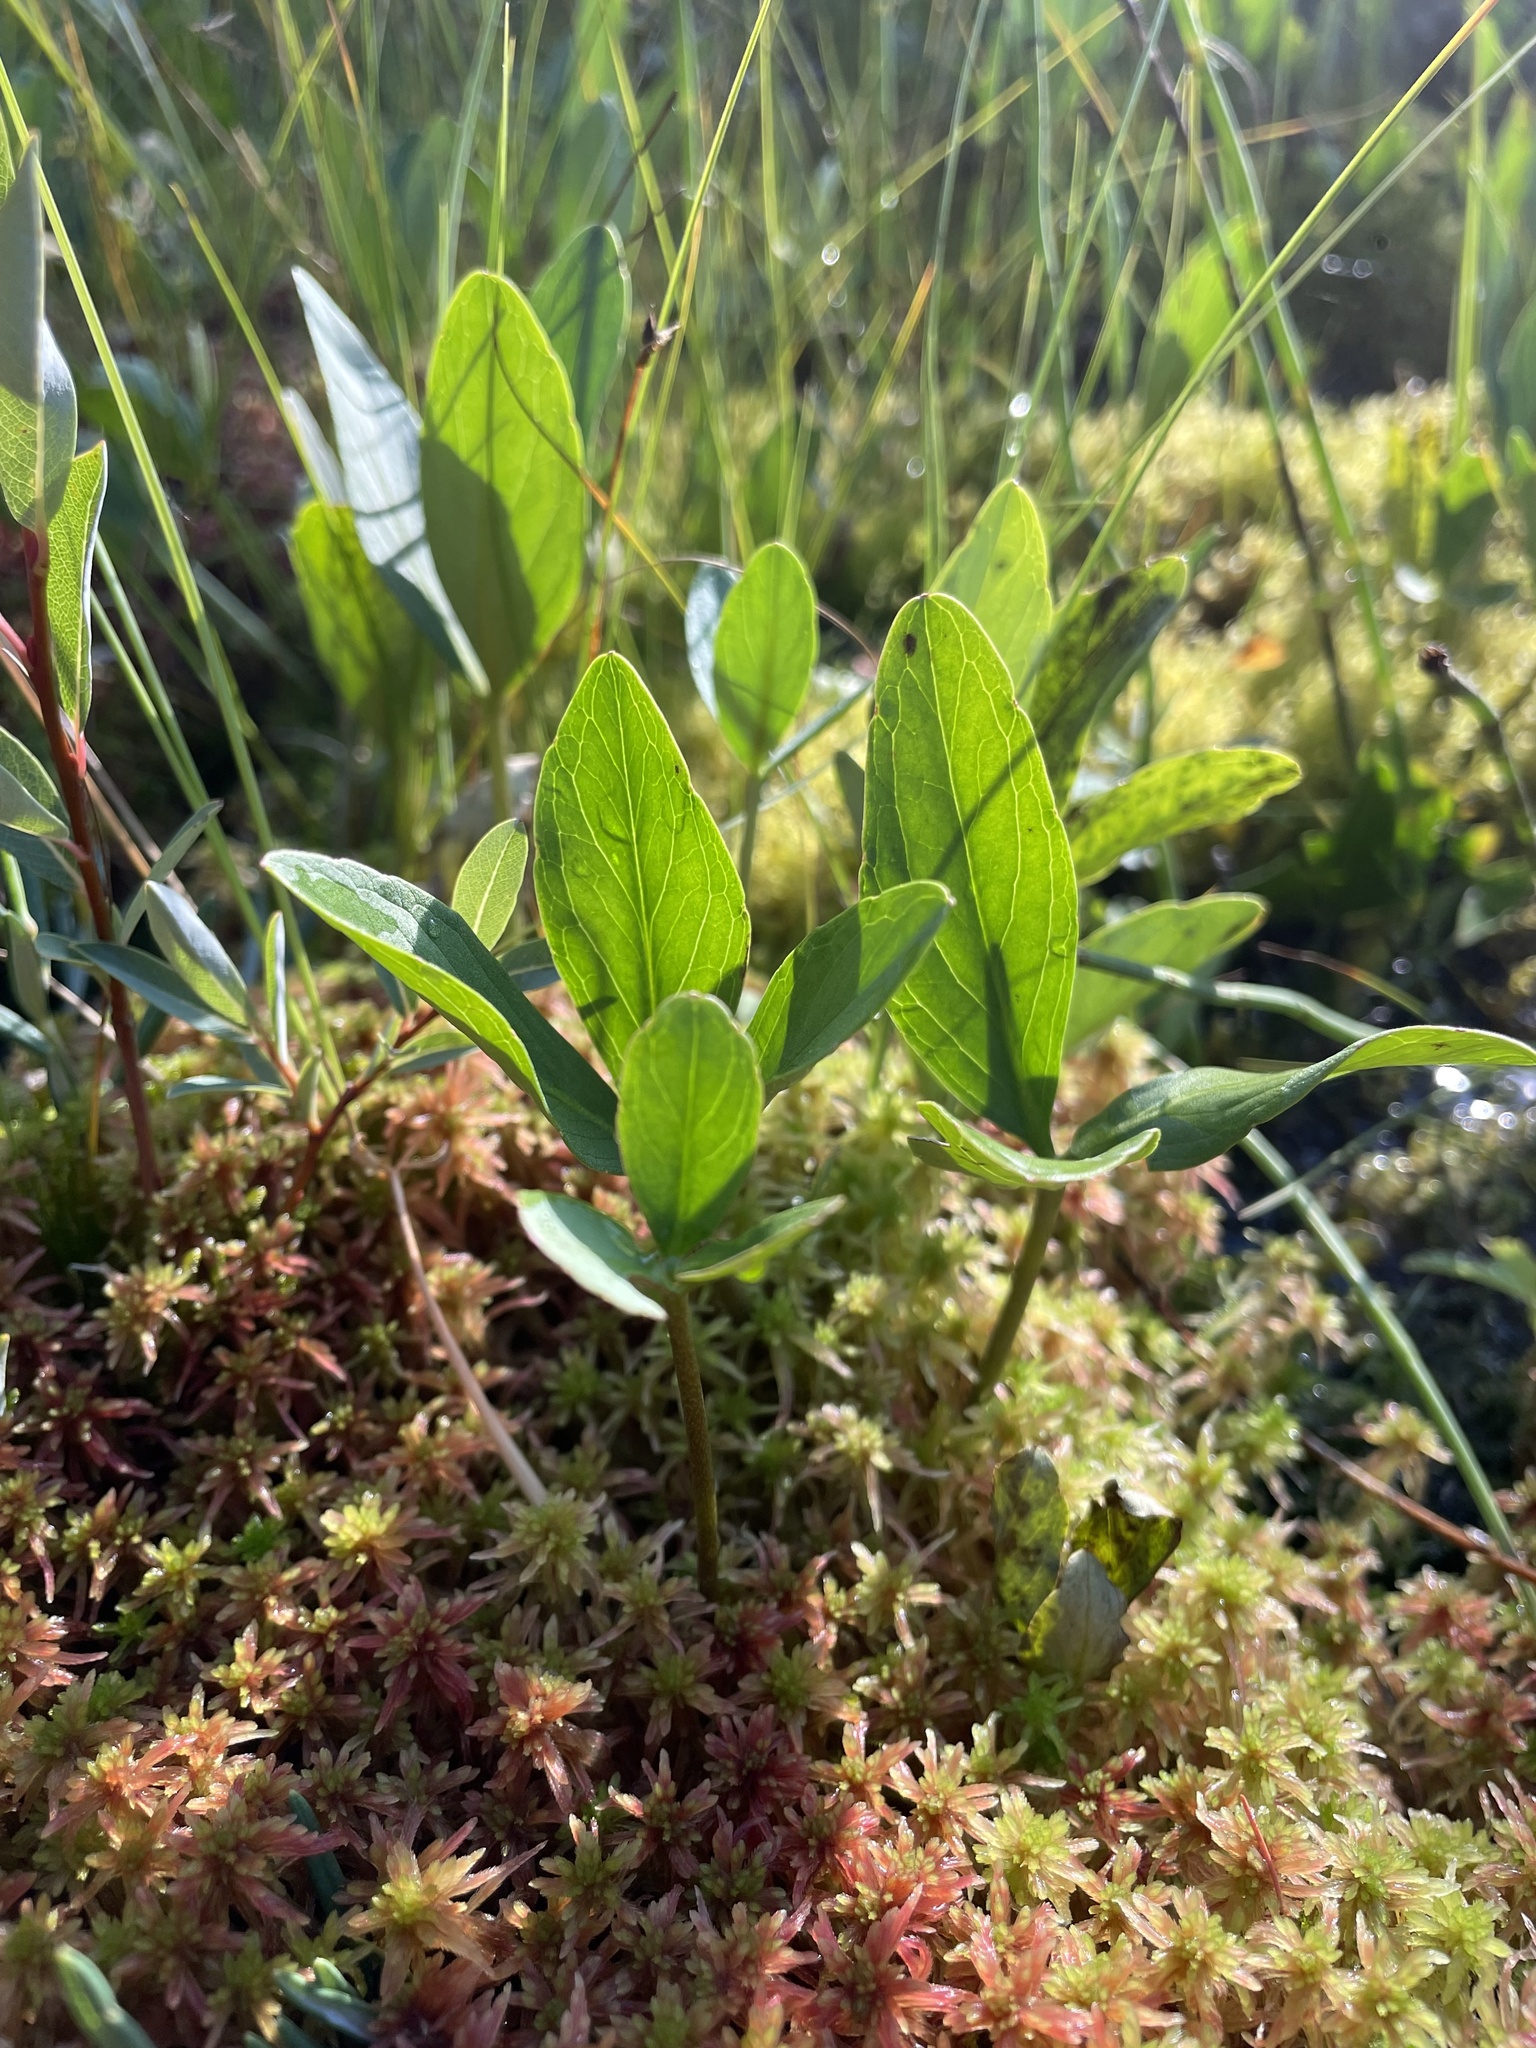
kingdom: Plantae
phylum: Tracheophyta
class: Magnoliopsida
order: Asterales
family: Menyanthaceae
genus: Menyanthes
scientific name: Menyanthes trifoliata
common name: Bogbean
